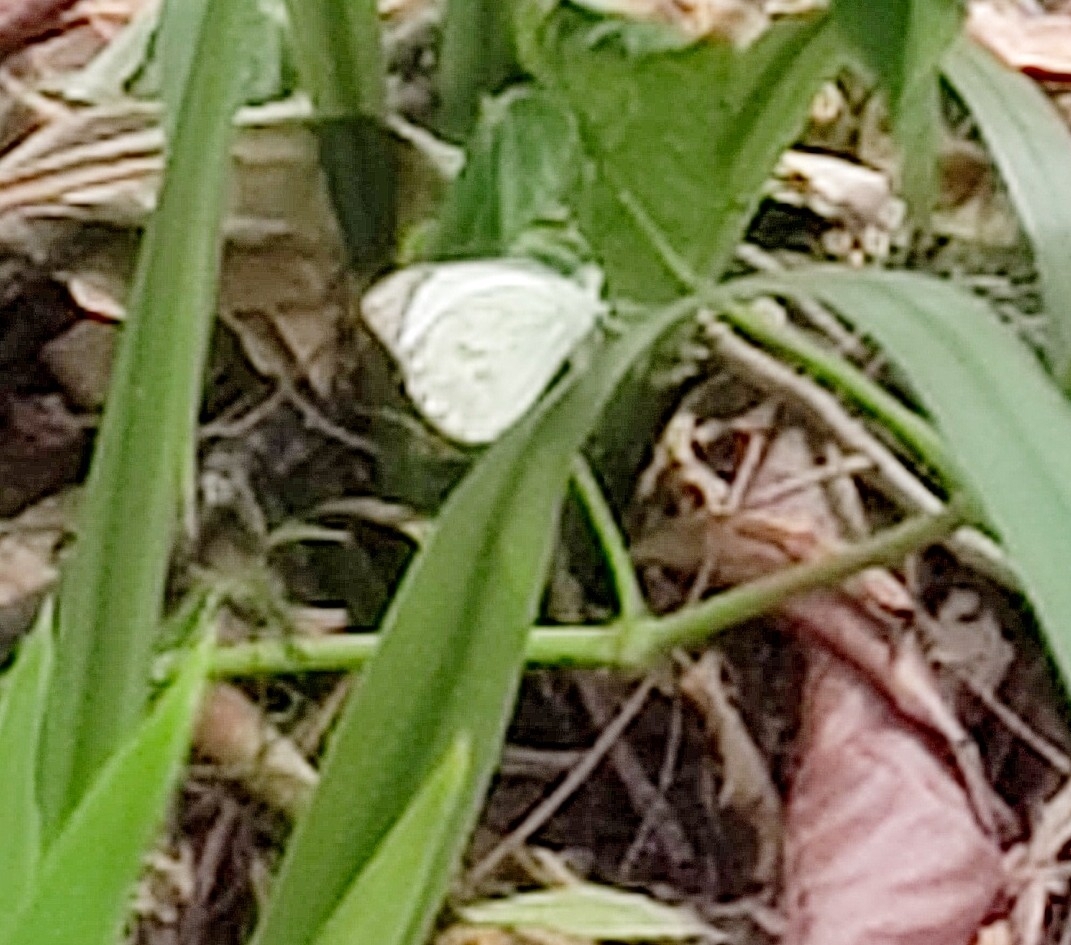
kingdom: Animalia
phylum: Arthropoda
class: Insecta
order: Lepidoptera
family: Pieridae
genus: Ascia
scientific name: Ascia monuste
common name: Great southern white
